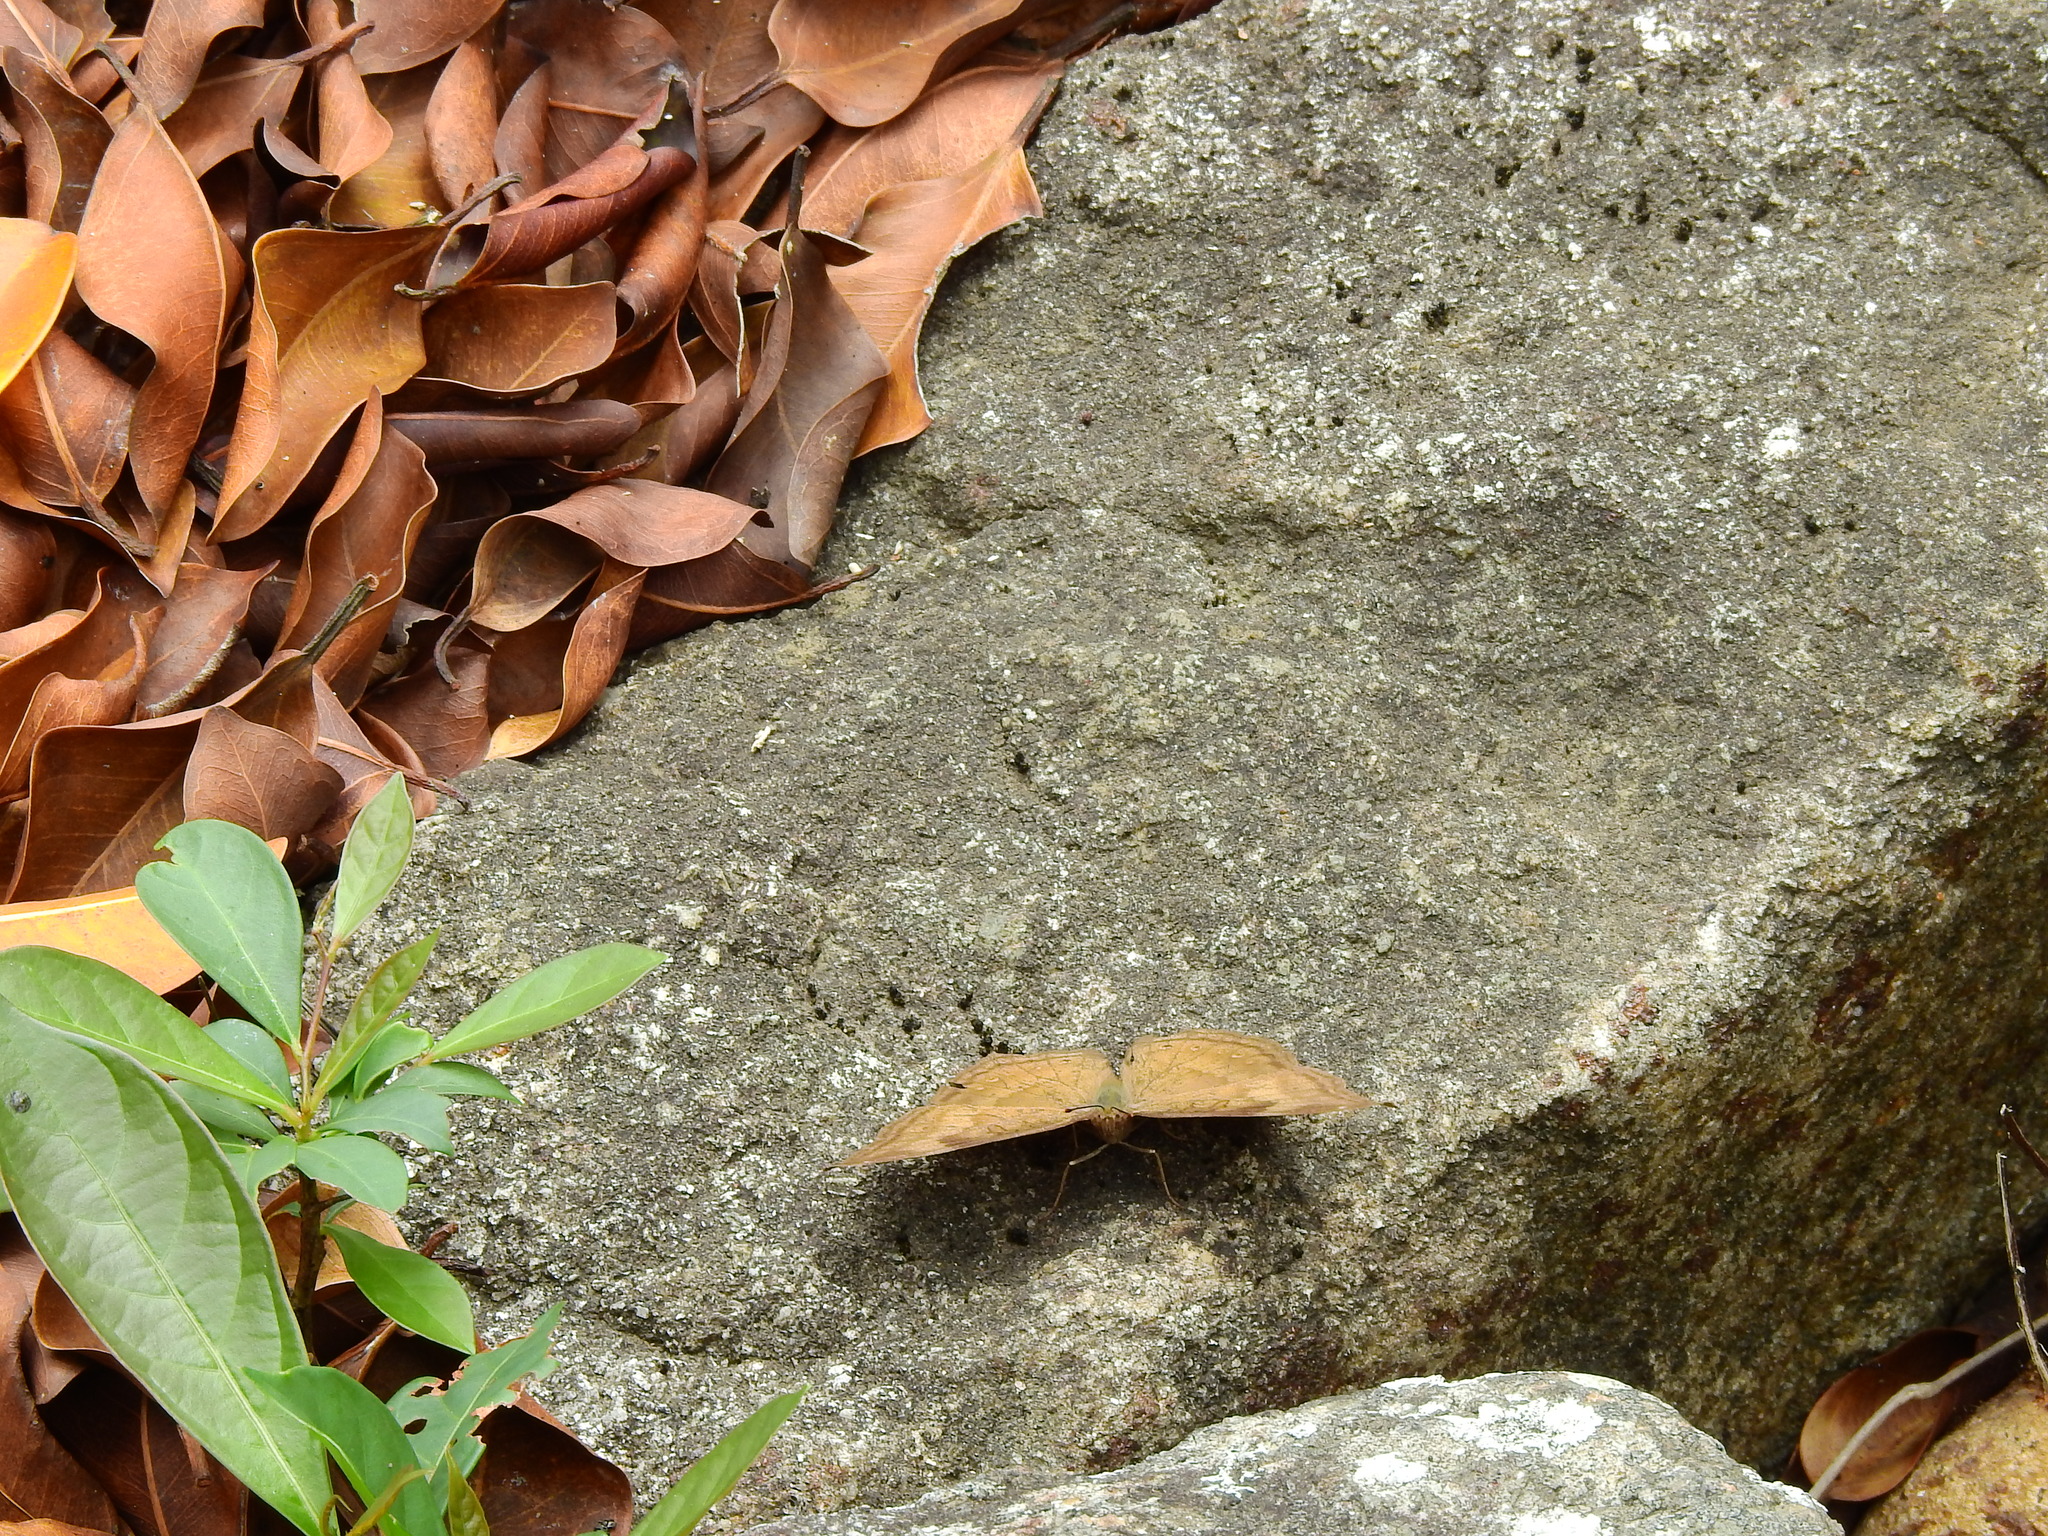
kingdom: Animalia
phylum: Arthropoda
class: Insecta
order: Lepidoptera
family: Nymphalidae
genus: Junonia
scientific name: Junonia iphita
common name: Chocolate pansy
